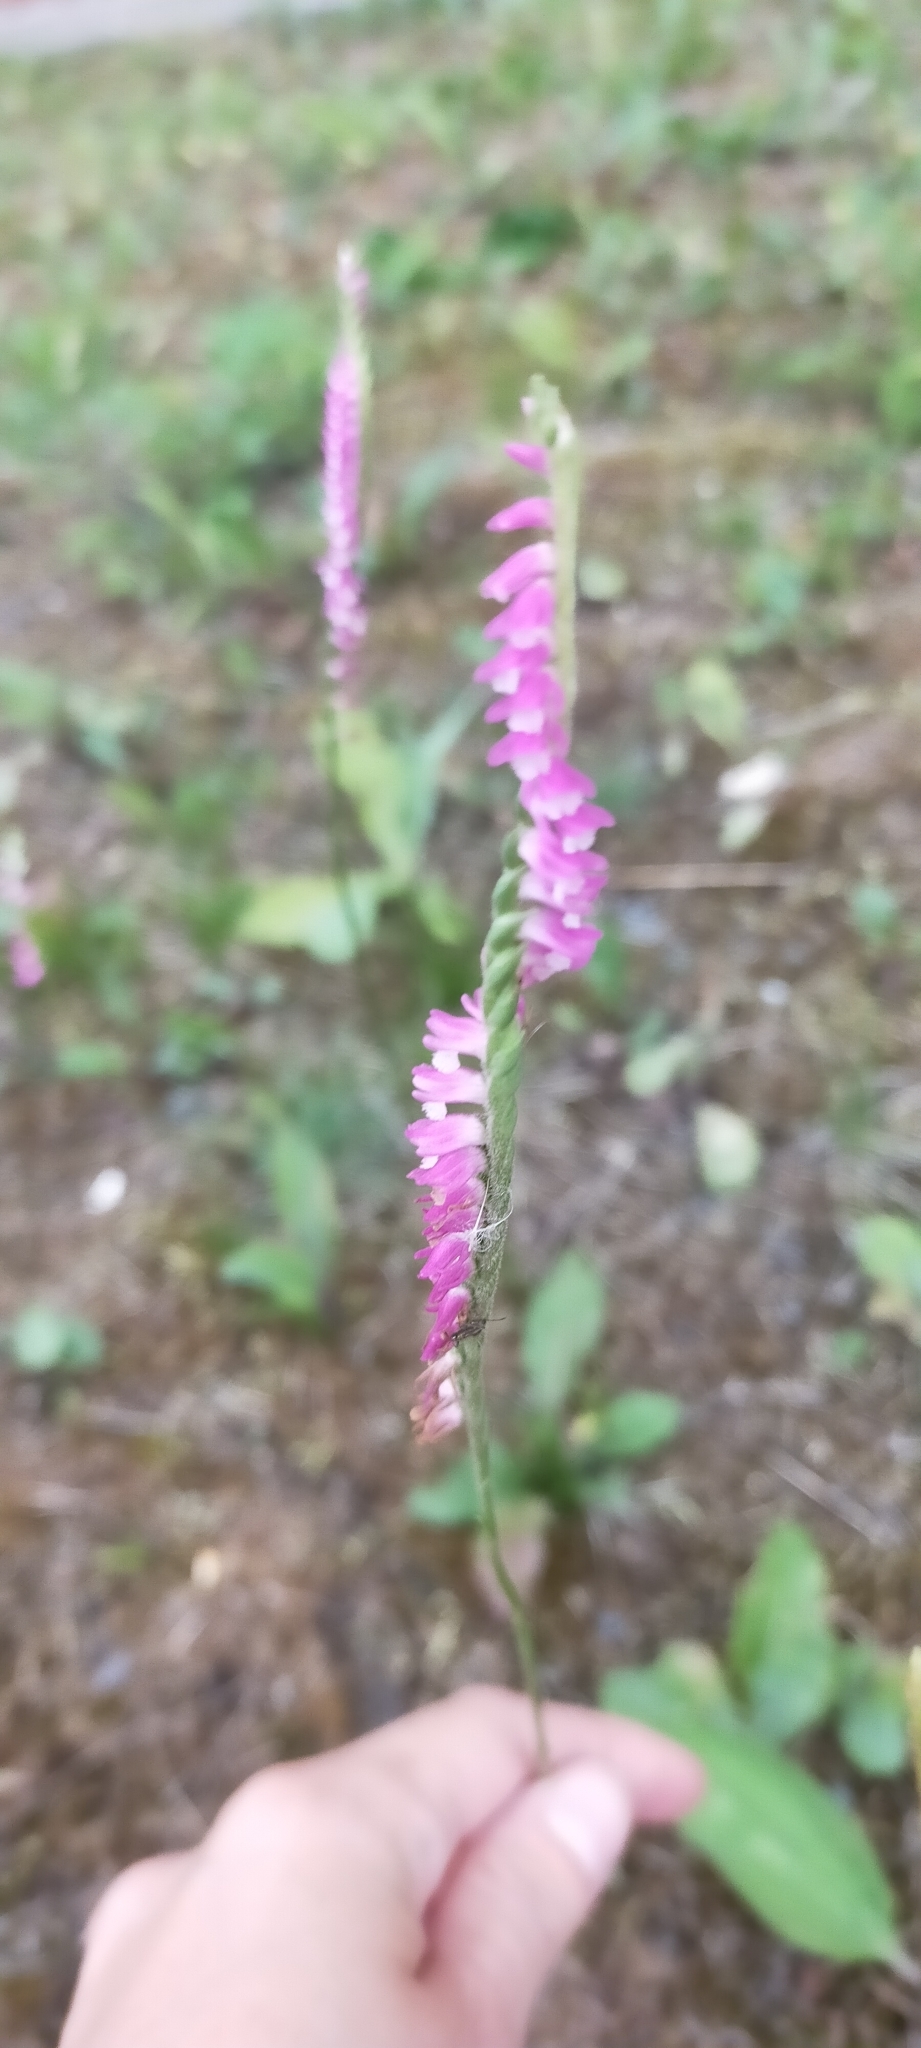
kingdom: Plantae
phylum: Tracheophyta
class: Liliopsida
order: Asparagales
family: Orchidaceae
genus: Spiranthes
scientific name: Spiranthes australis
